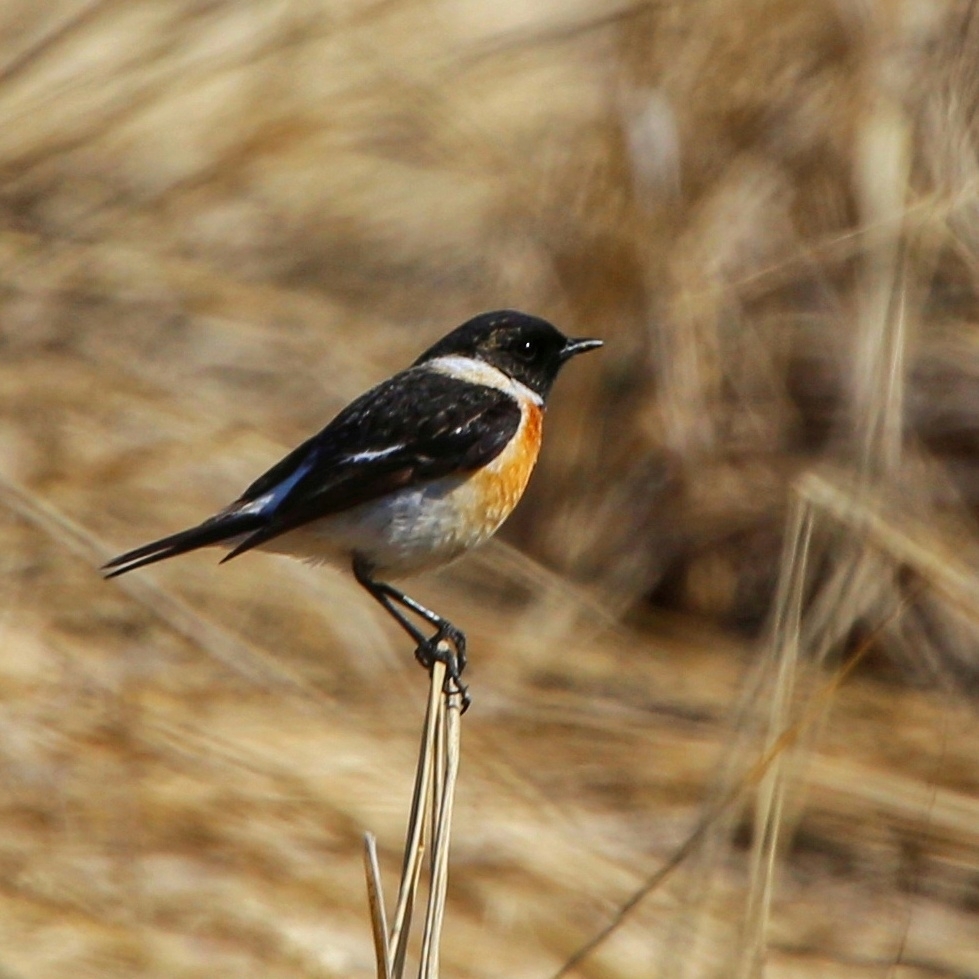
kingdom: Animalia
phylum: Chordata
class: Aves
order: Passeriformes
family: Muscicapidae
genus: Saxicola
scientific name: Saxicola maurus
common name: Siberian stonechat
